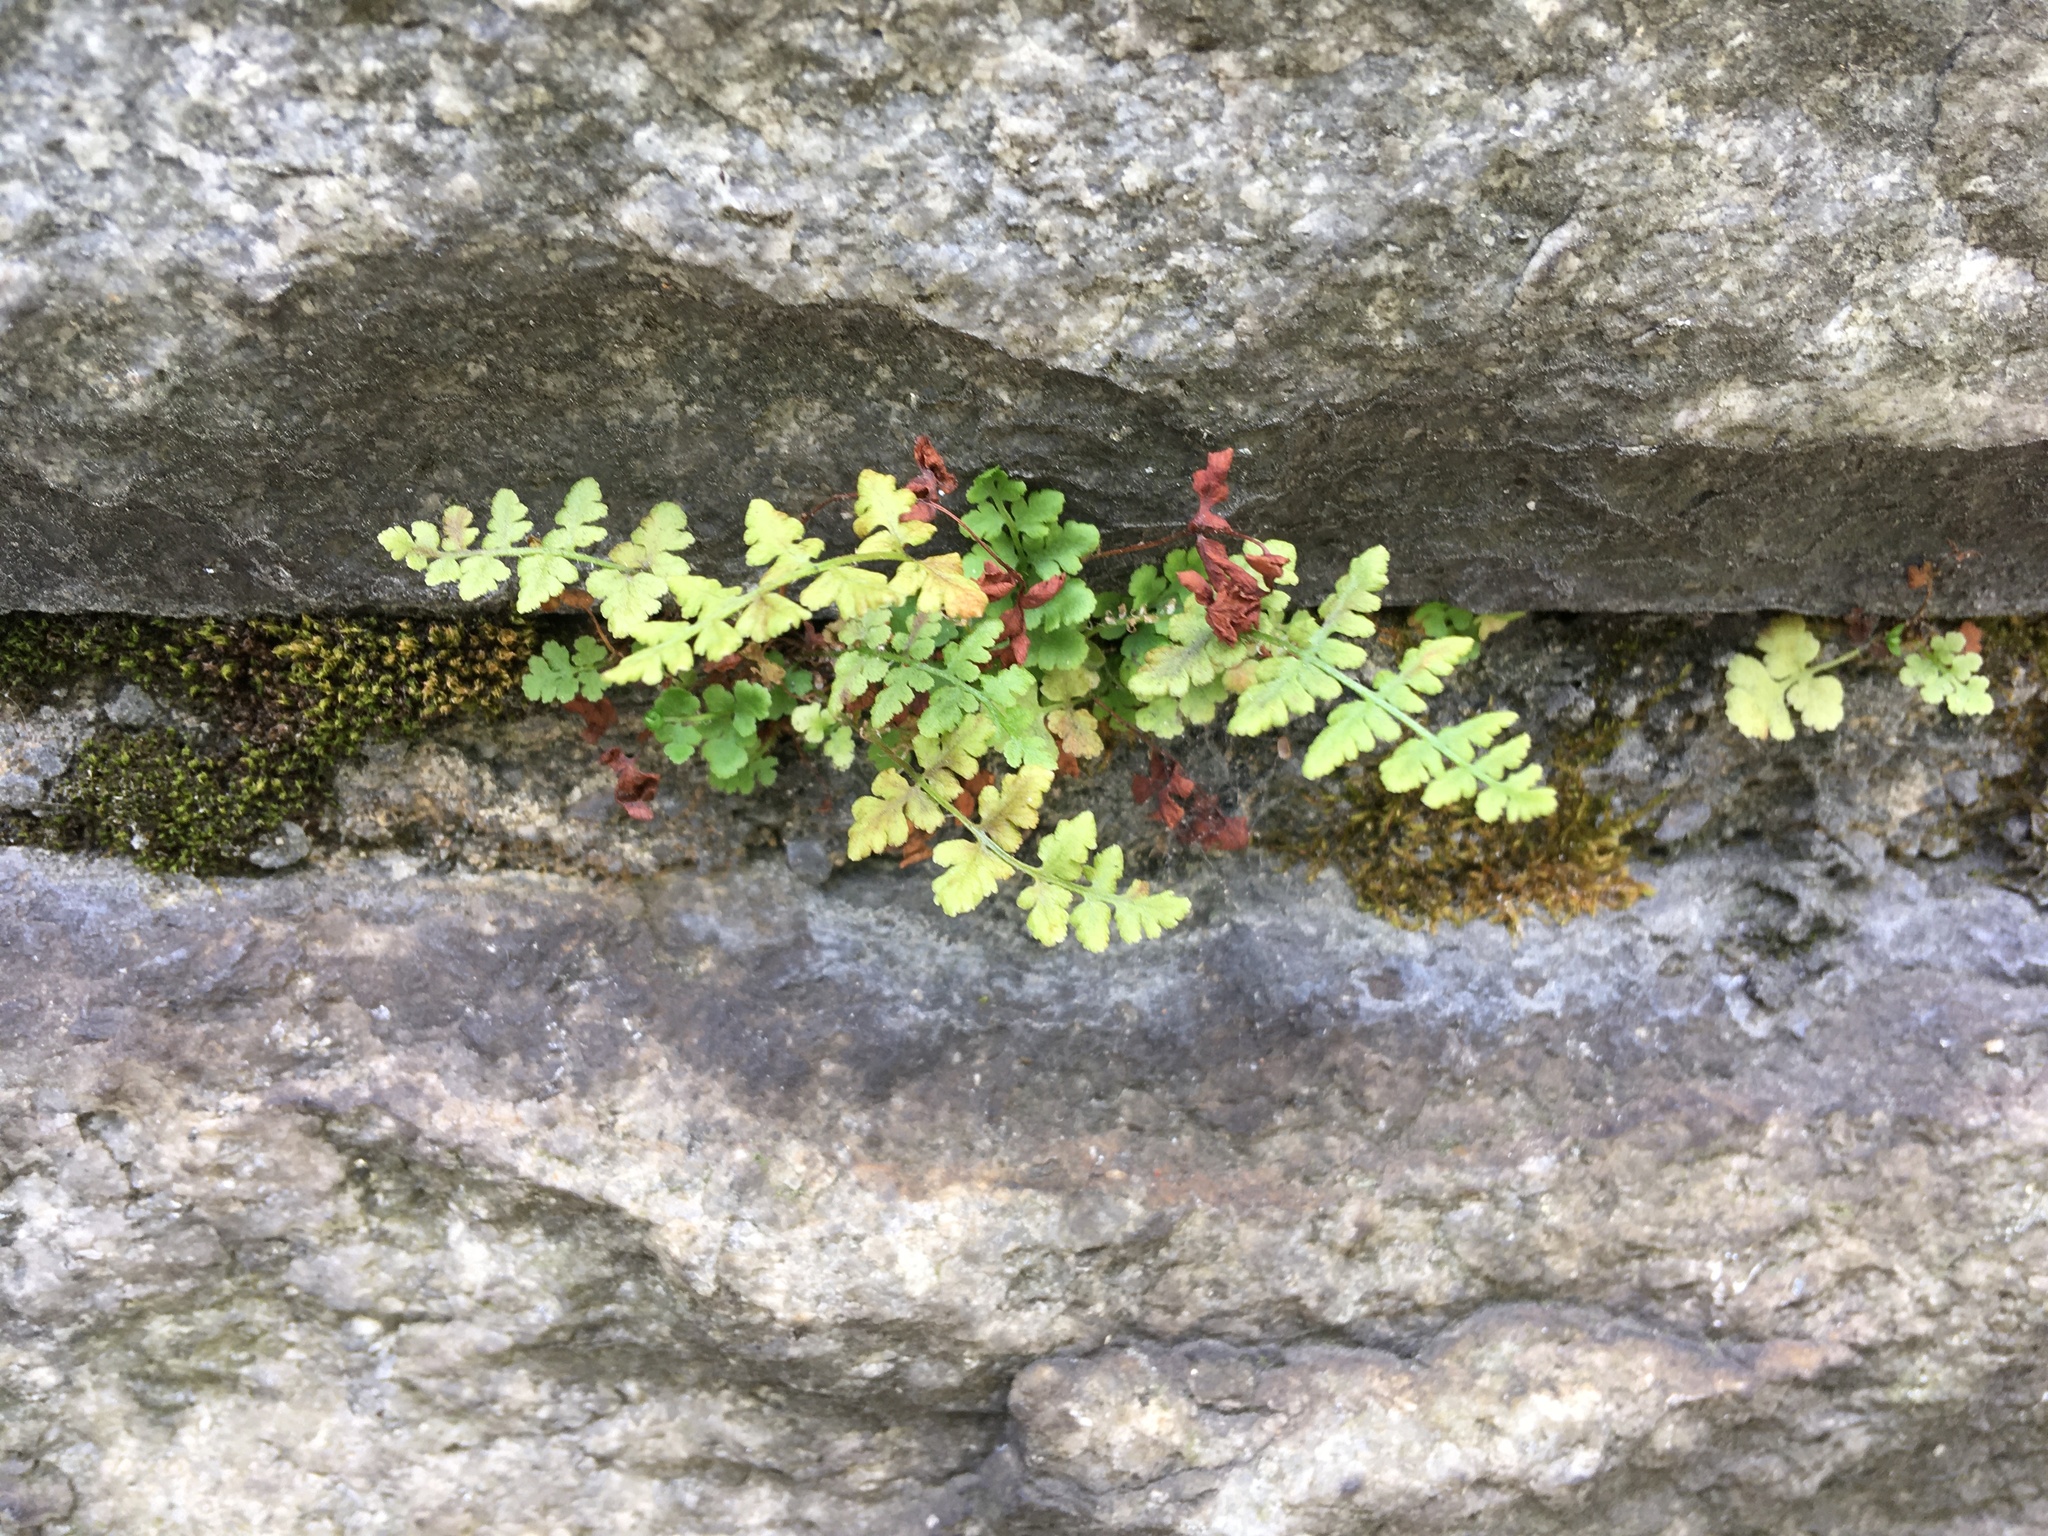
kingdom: Plantae
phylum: Tracheophyta
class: Polypodiopsida
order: Polypodiales
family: Woodsiaceae
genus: Physematium
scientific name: Physematium obtusum
